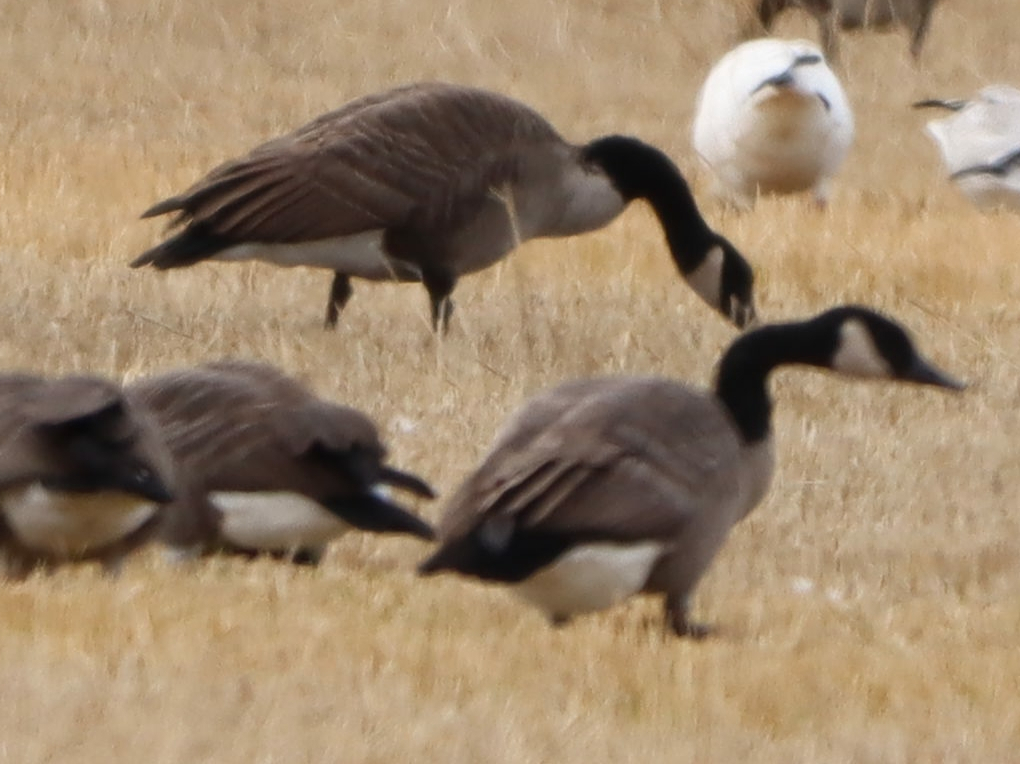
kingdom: Animalia
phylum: Chordata
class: Aves
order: Anseriformes
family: Anatidae
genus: Branta
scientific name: Branta canadensis
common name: Canada goose
